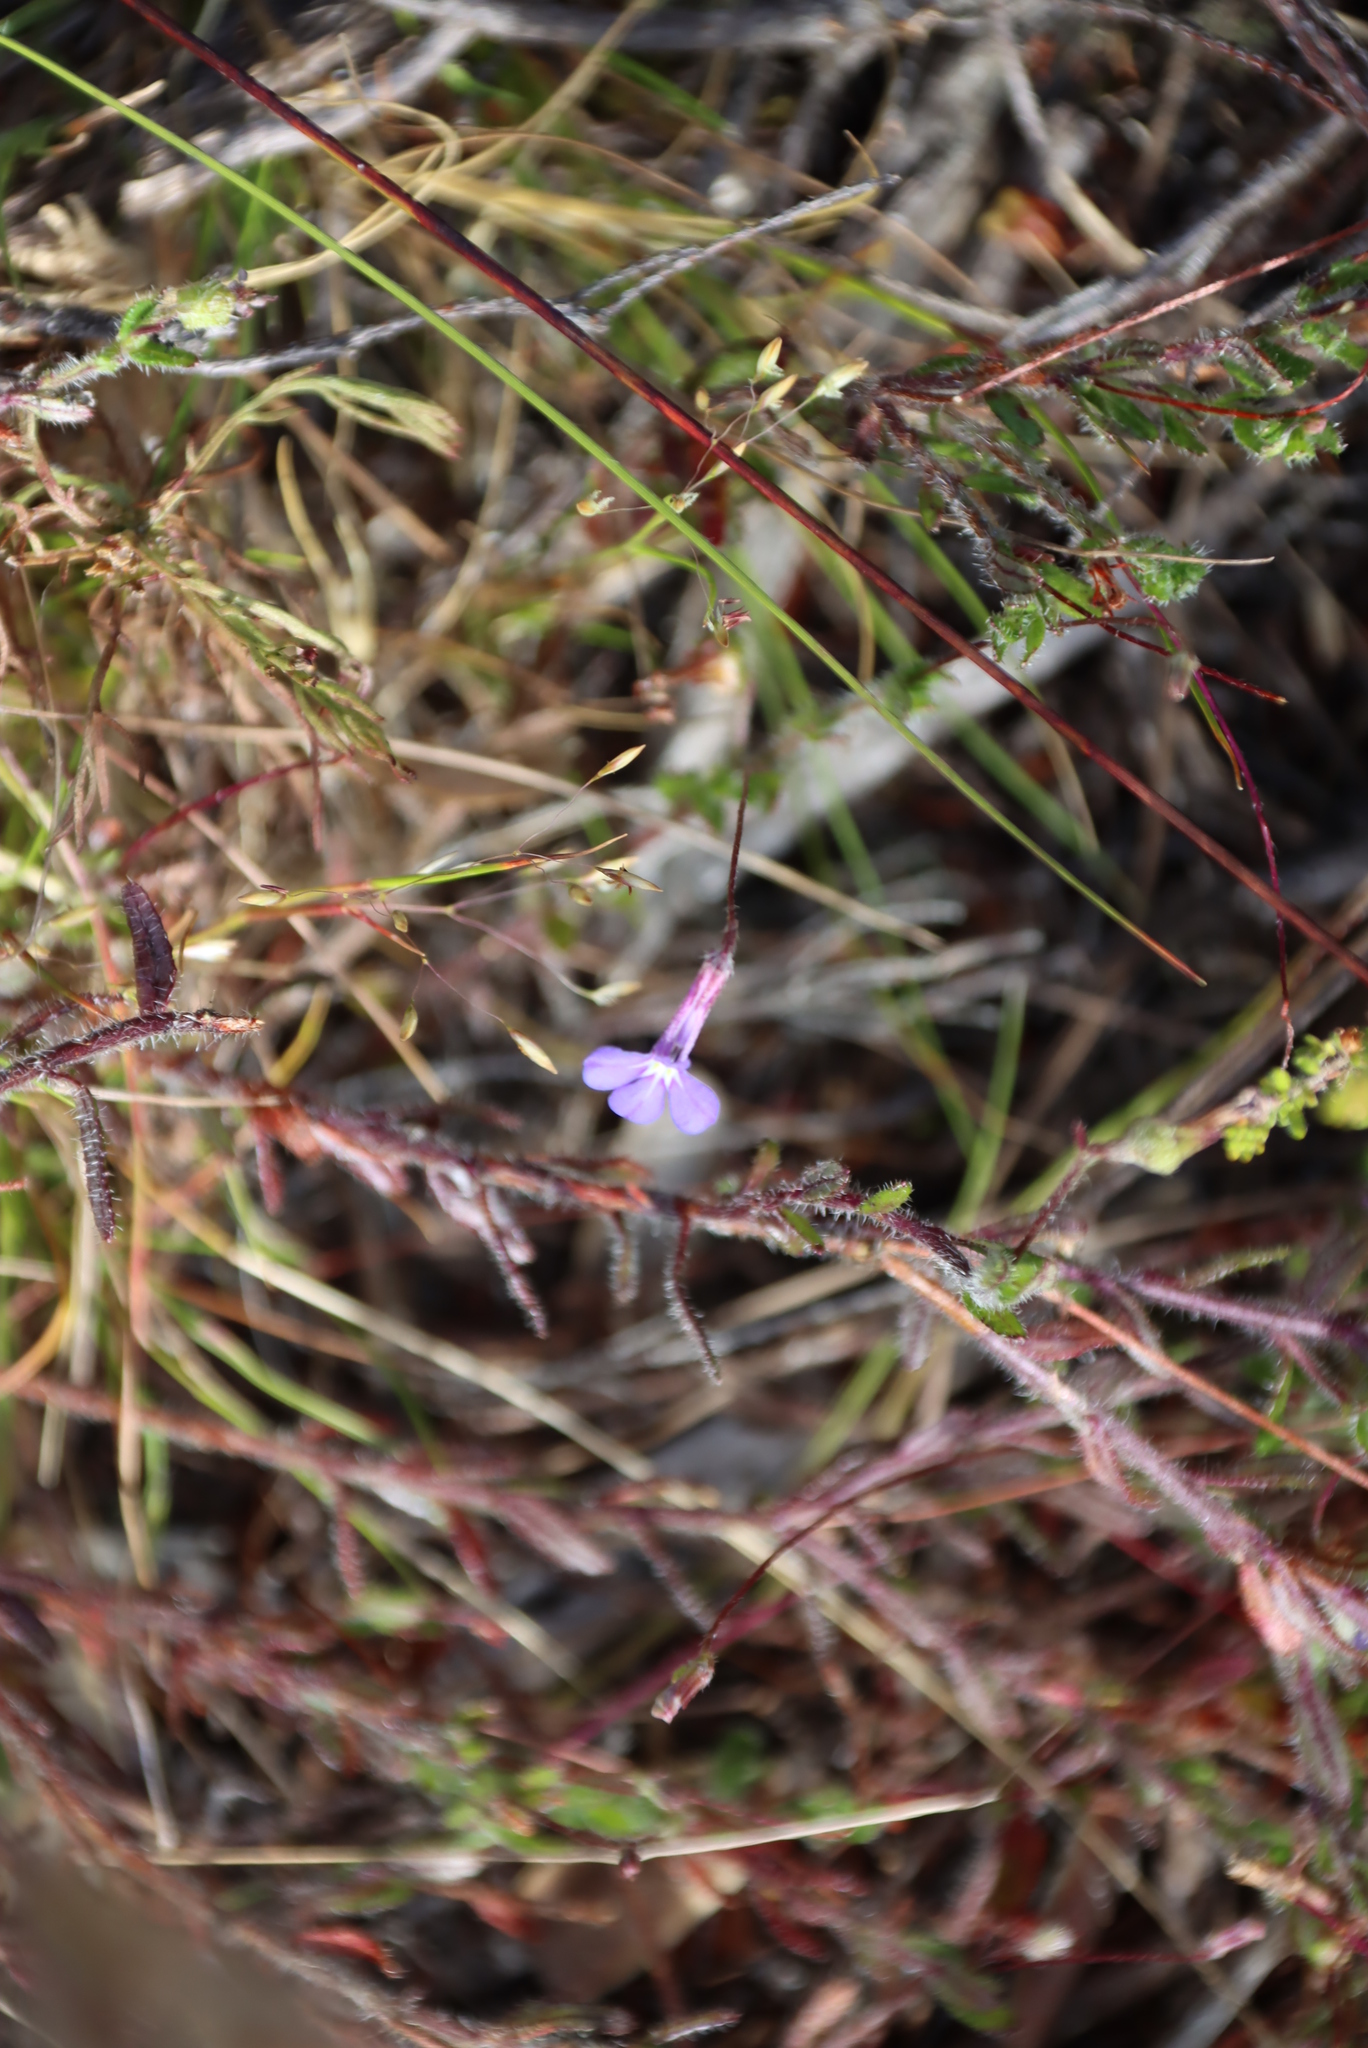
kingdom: Plantae
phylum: Tracheophyta
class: Magnoliopsida
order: Asterales
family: Campanulaceae
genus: Lobelia
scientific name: Lobelia neglecta
